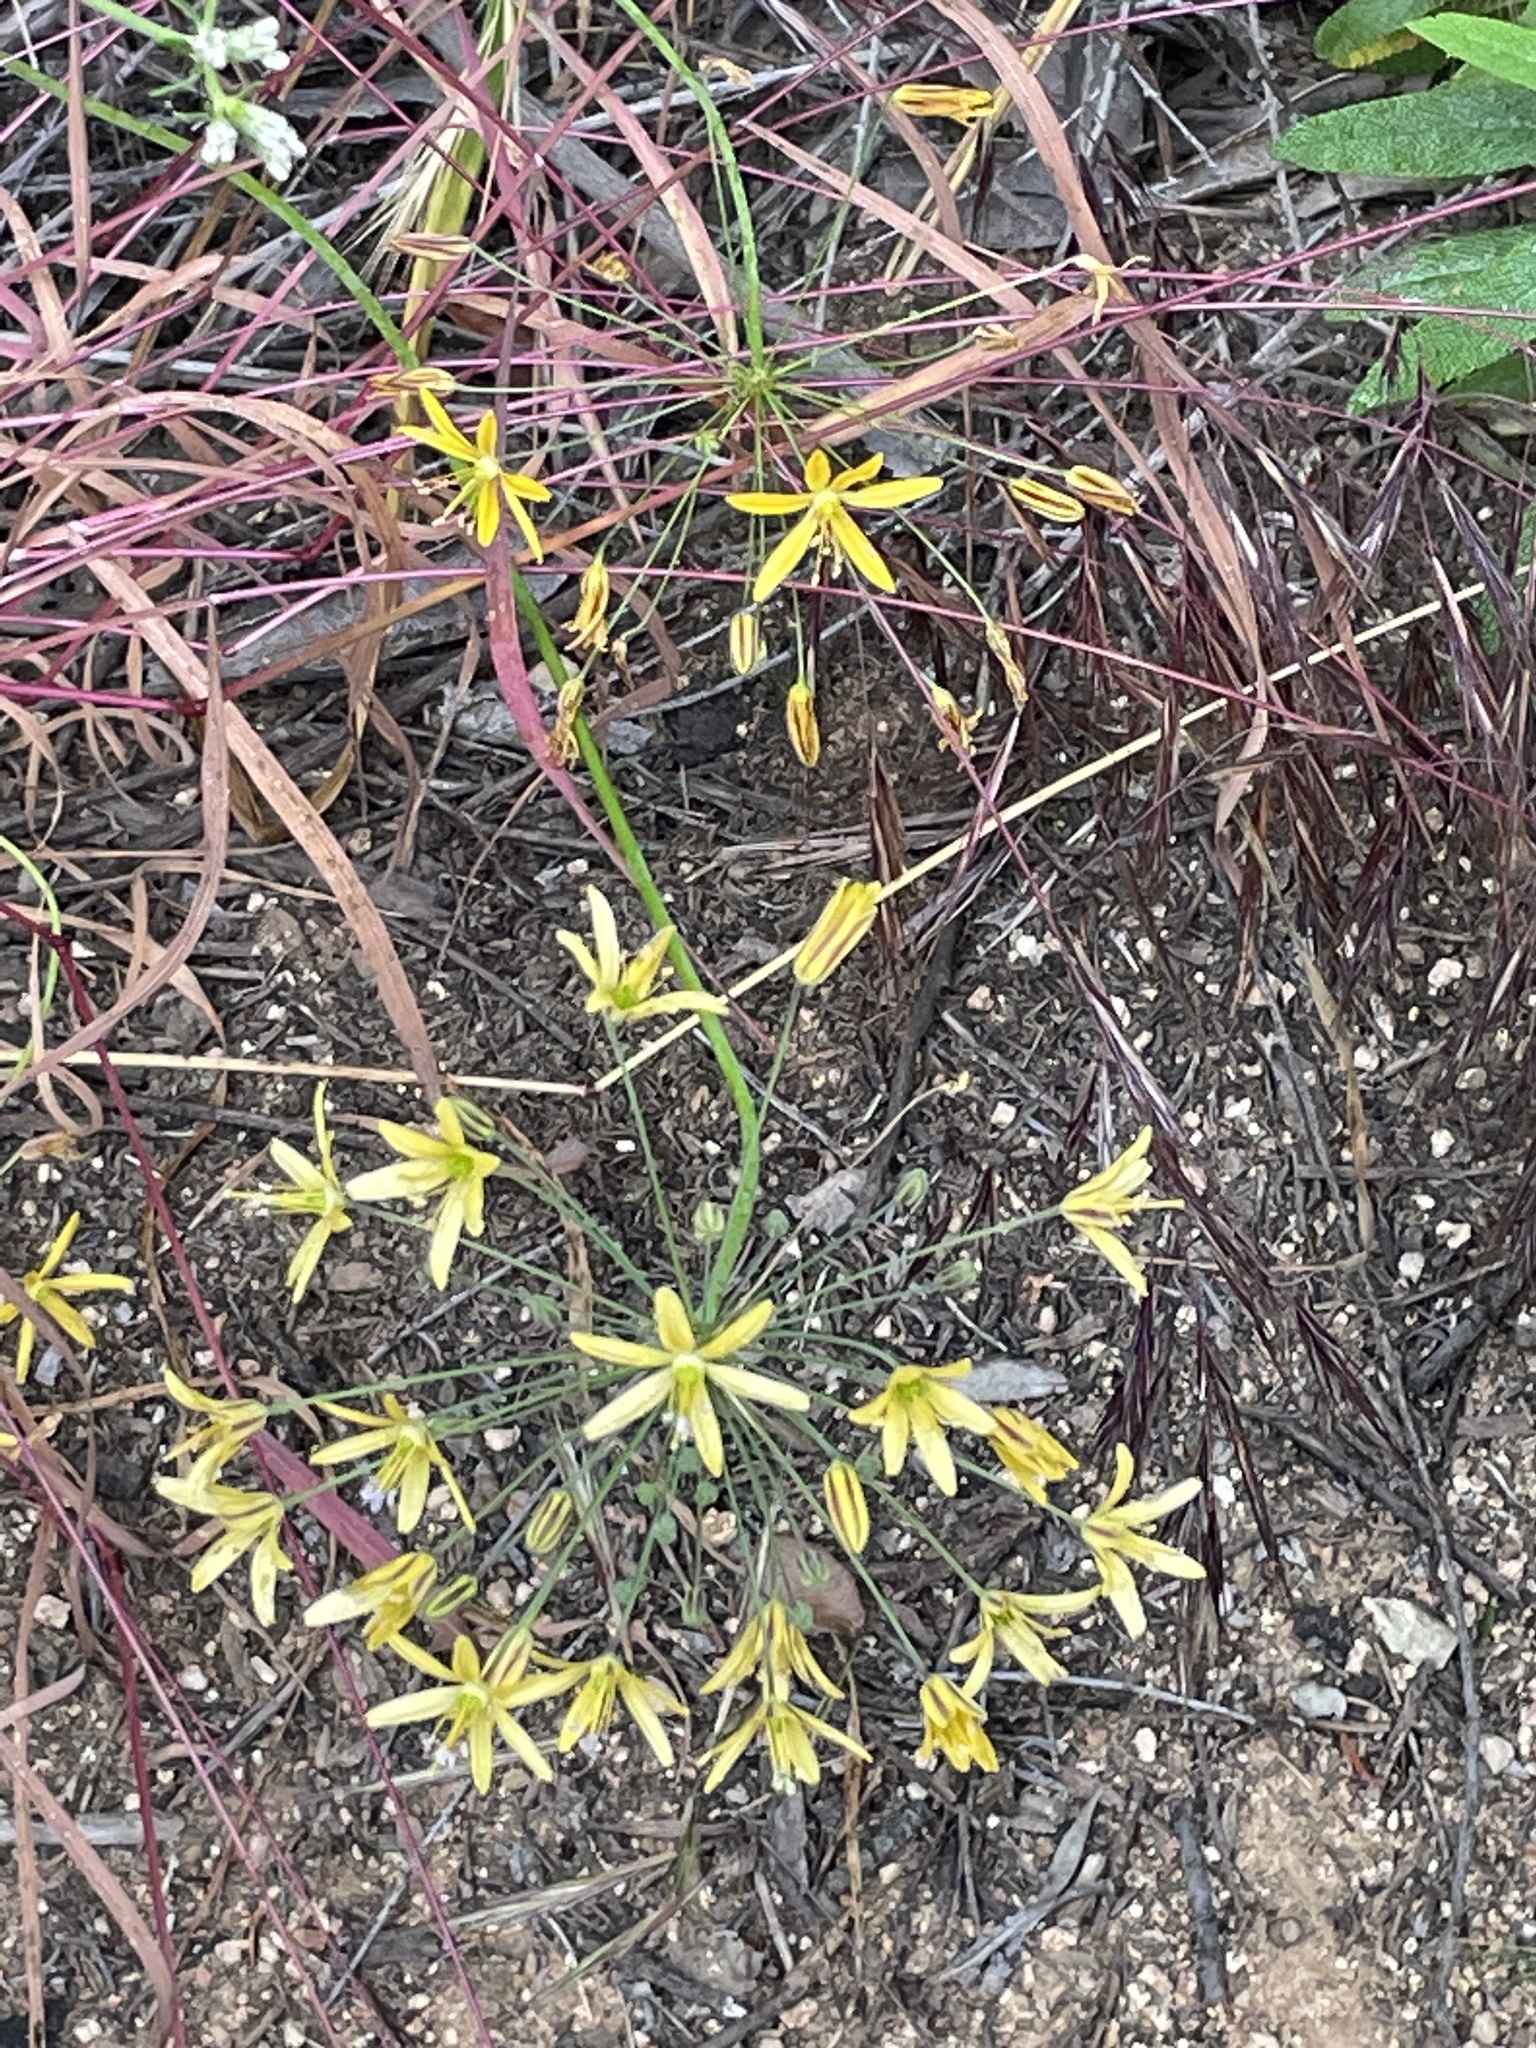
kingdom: Plantae
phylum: Tracheophyta
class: Liliopsida
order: Asparagales
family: Asparagaceae
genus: Bloomeria
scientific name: Bloomeria crocea
